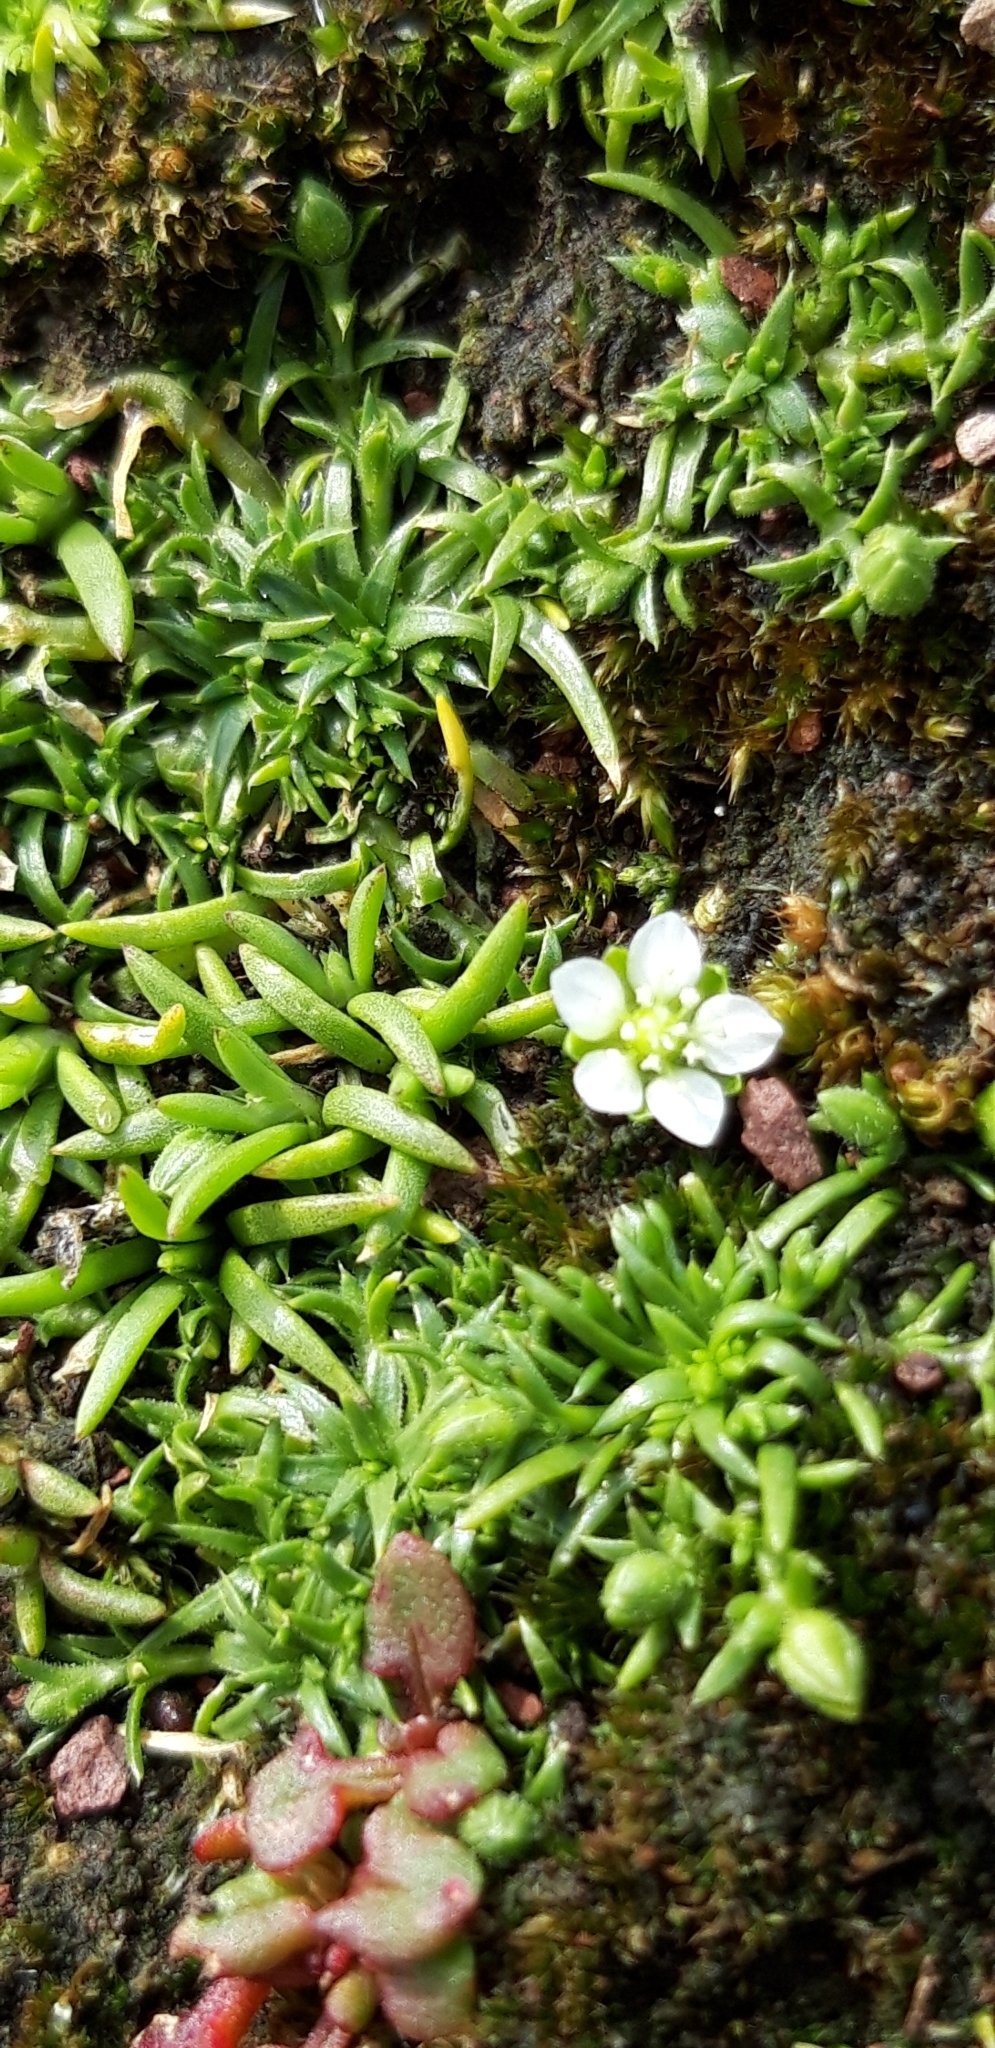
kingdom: Plantae
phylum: Tracheophyta
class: Magnoliopsida
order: Caryophyllales
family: Caryophyllaceae
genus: Sagina
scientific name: Sagina
